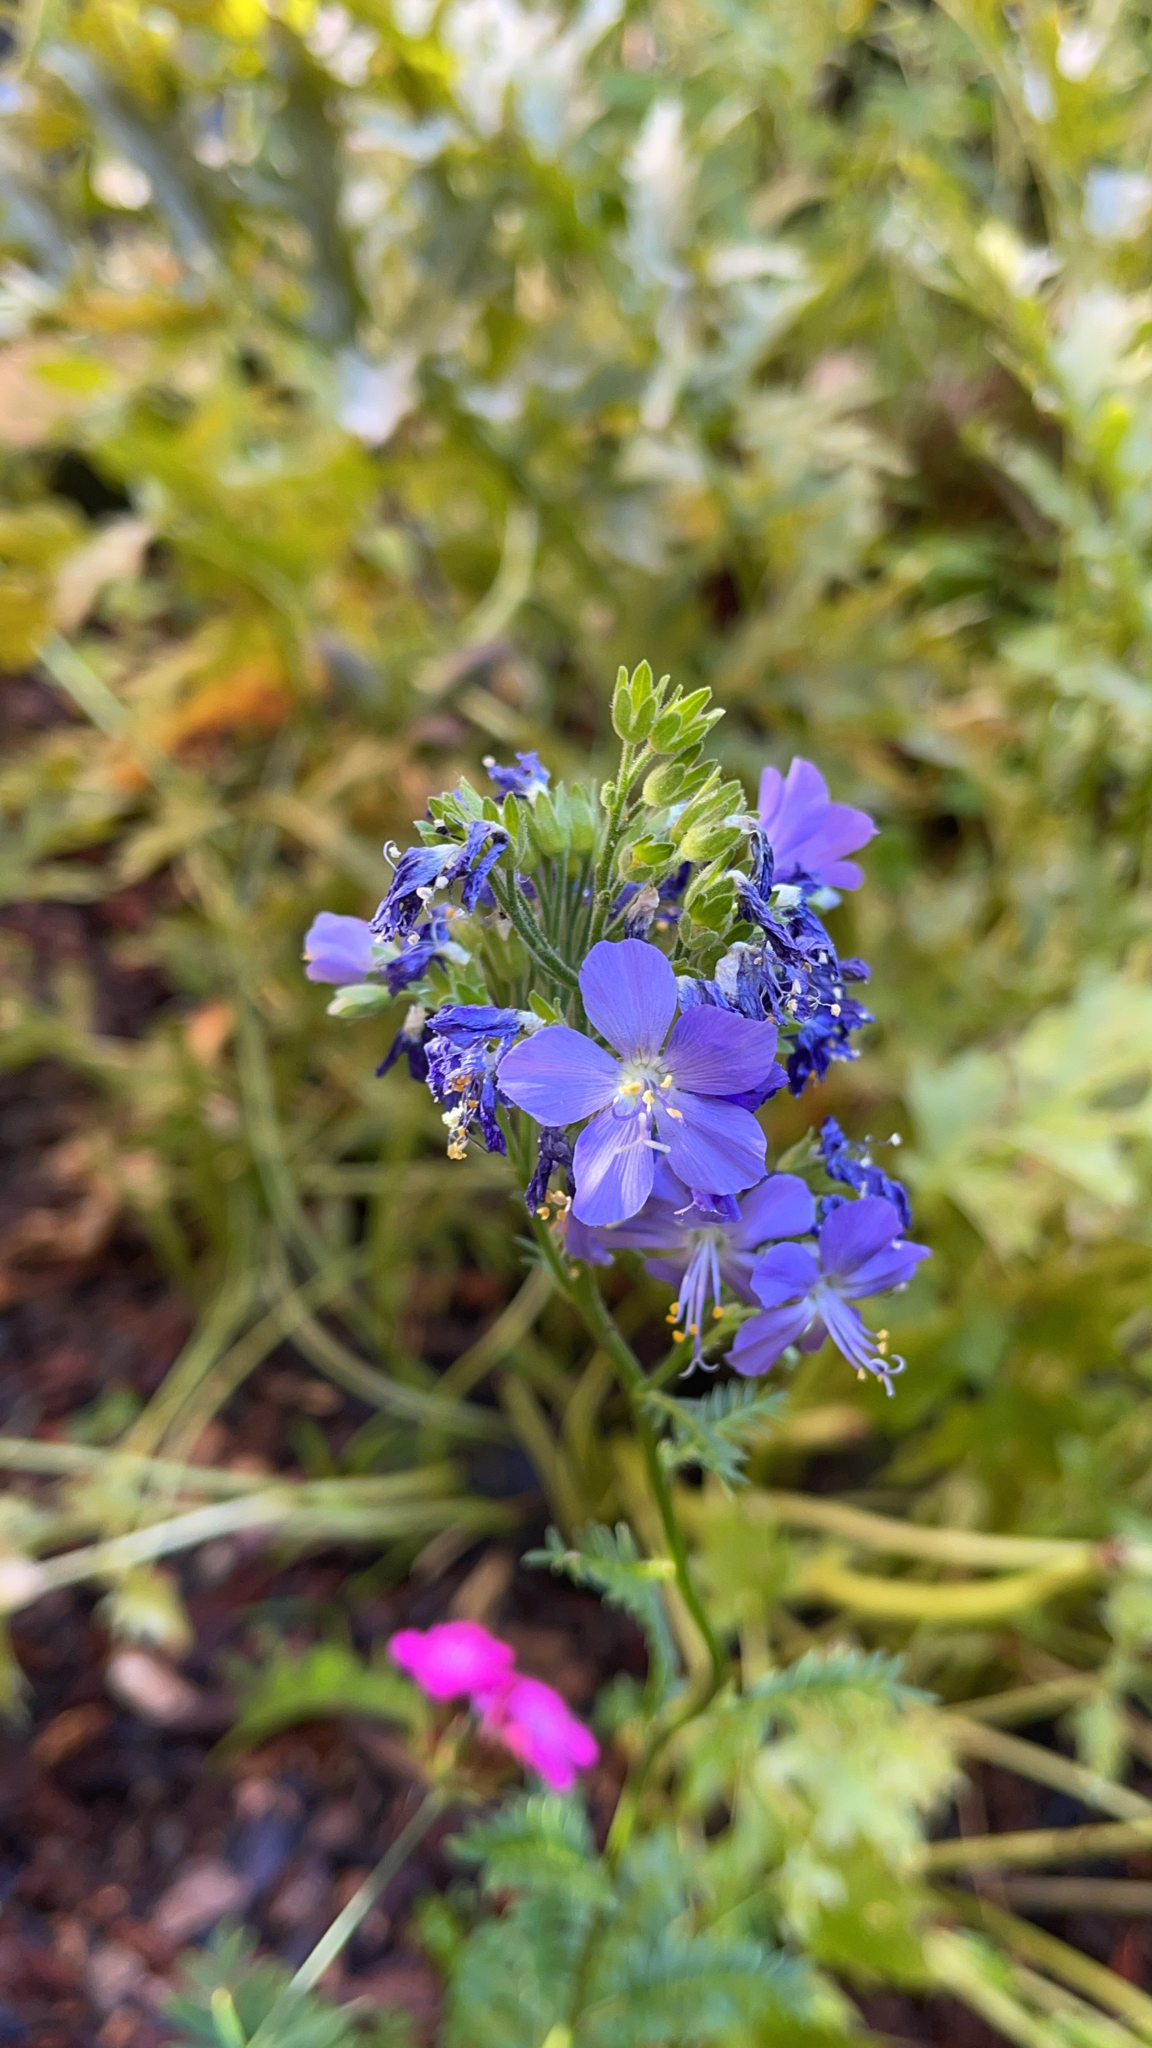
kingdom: Plantae
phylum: Tracheophyta
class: Magnoliopsida
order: Ericales
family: Polemoniaceae
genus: Polemonium
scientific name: Polemonium caeruleum
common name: Jacob's-ladder
